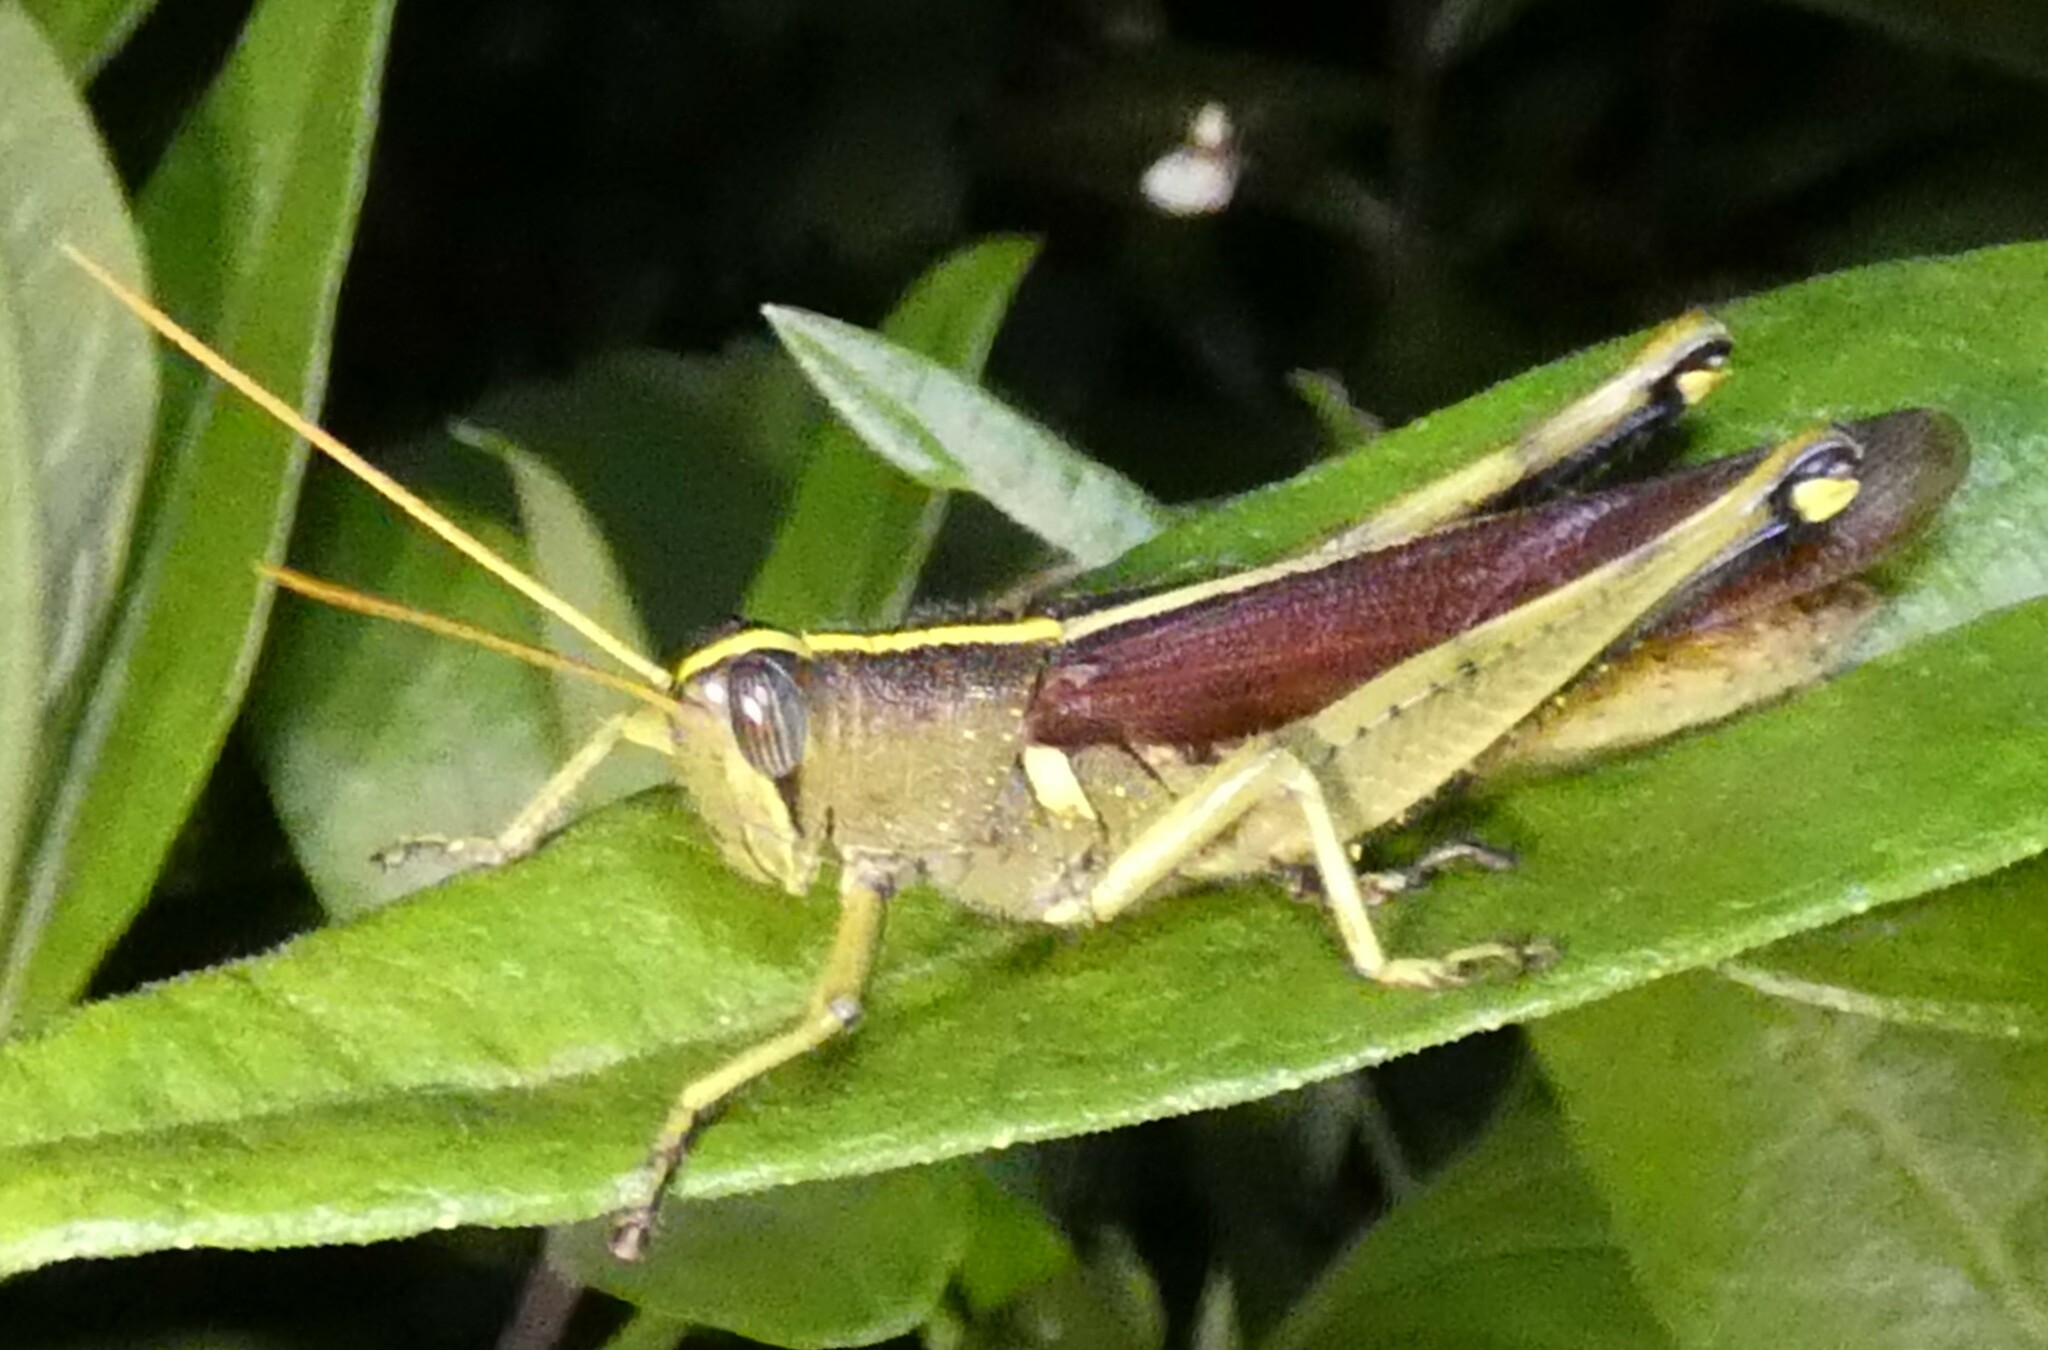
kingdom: Animalia
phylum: Arthropoda
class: Insecta
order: Orthoptera
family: Acrididae
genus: Schistocerca
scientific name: Schistocerca obscura
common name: Obscure bird grasshopper
